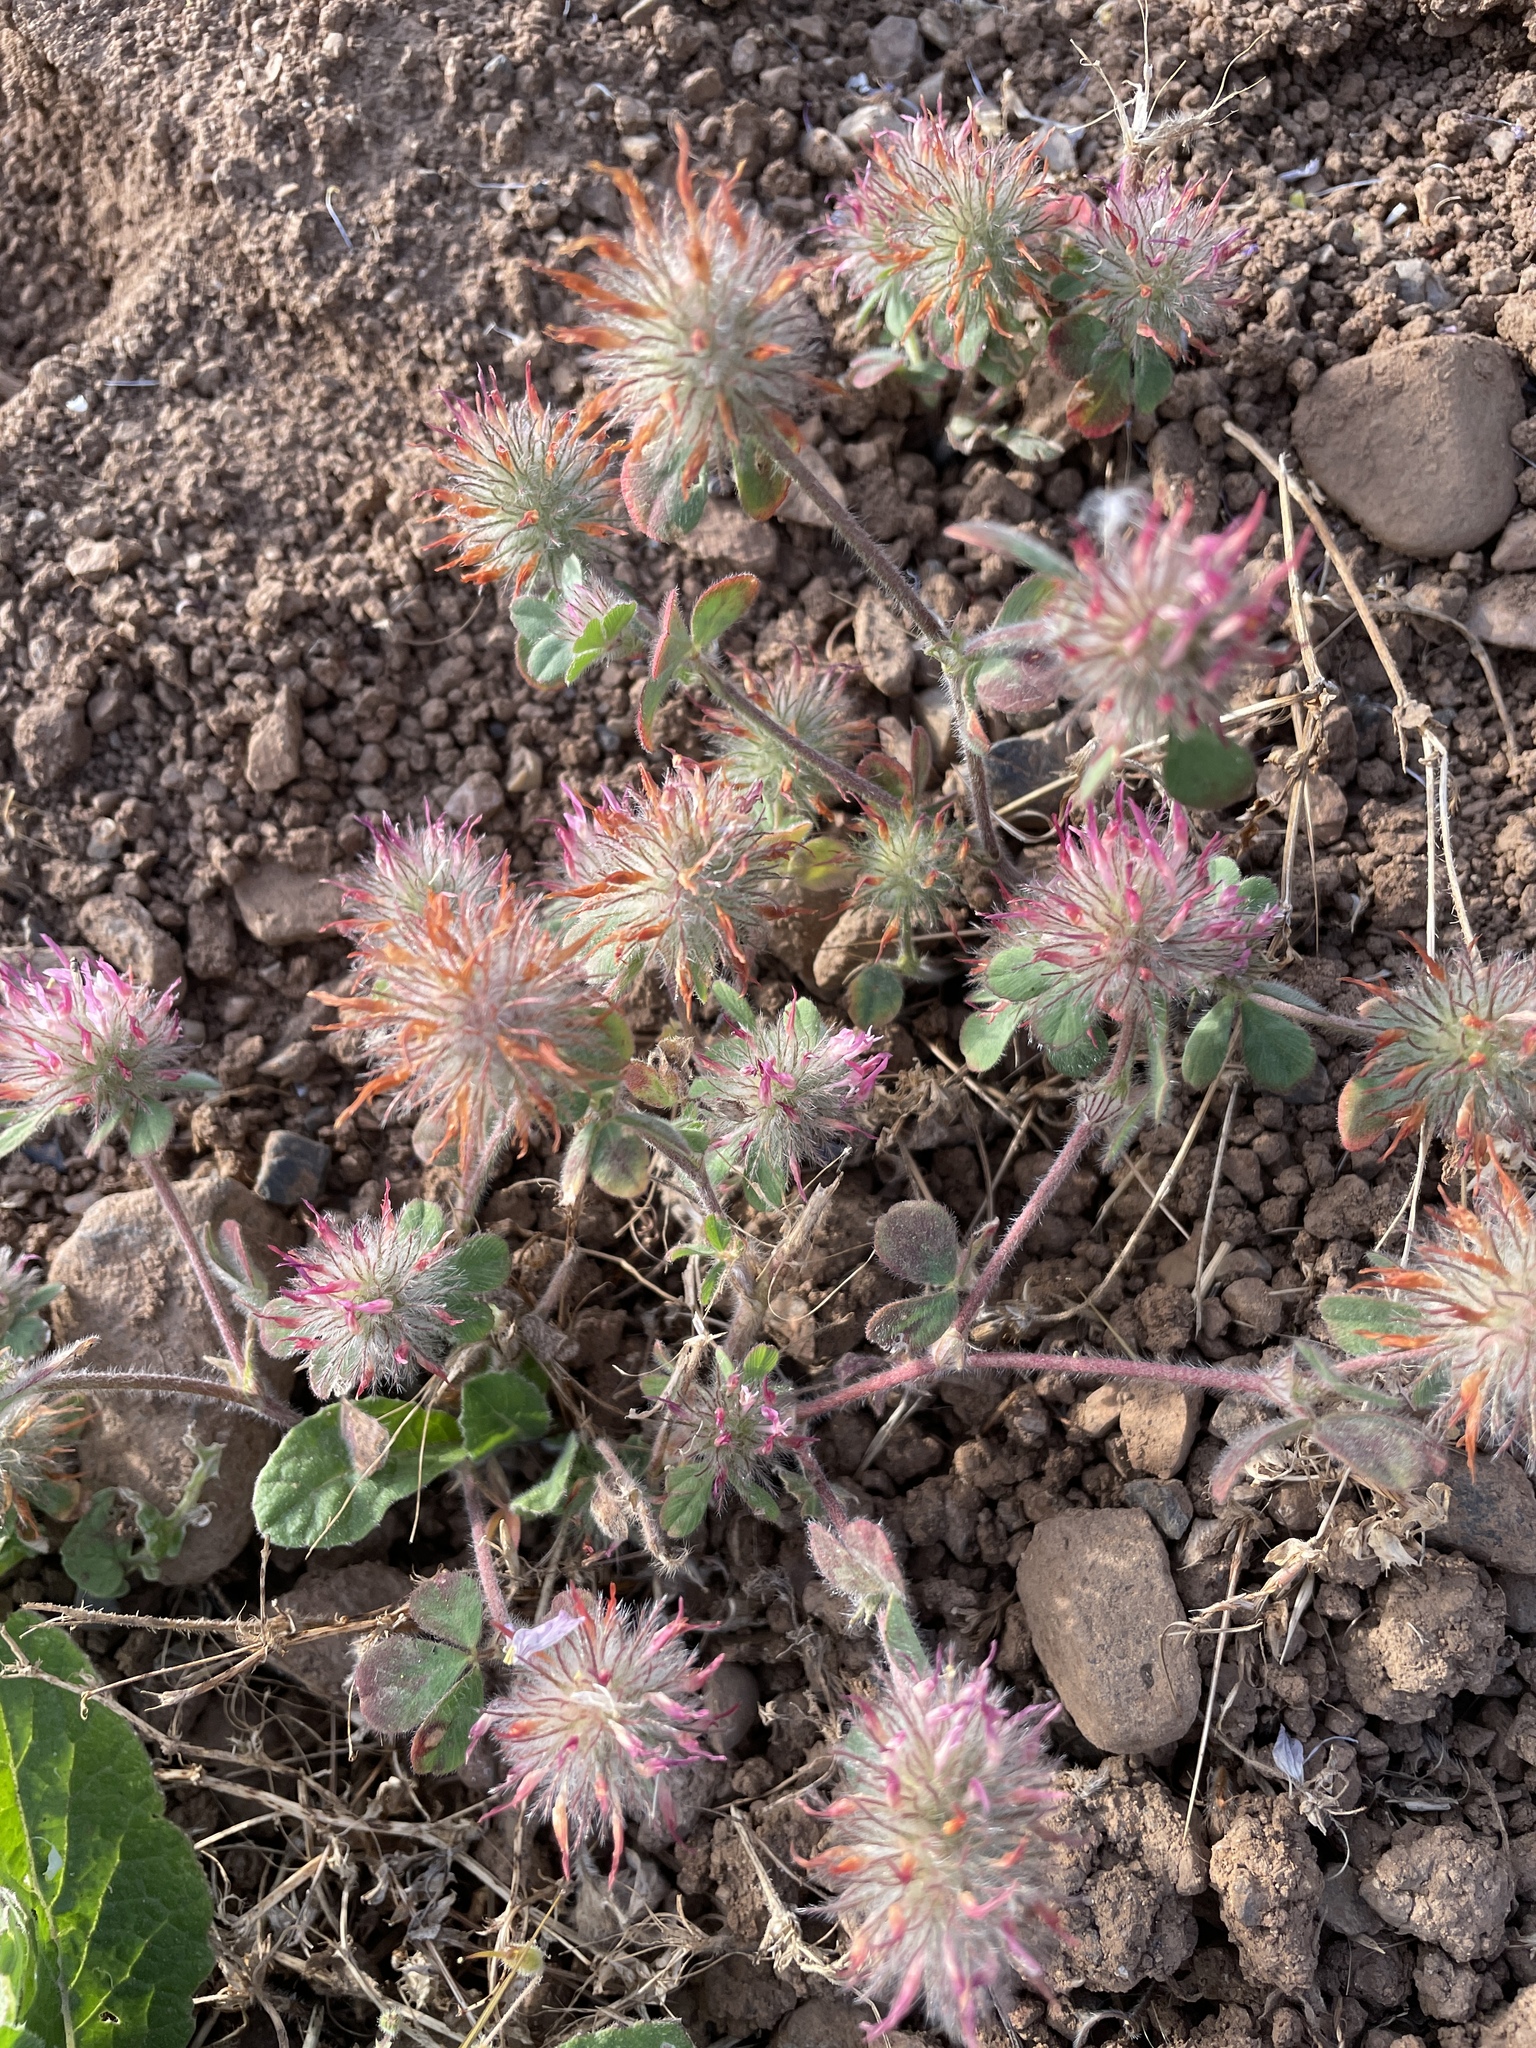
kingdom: Plantae
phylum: Tracheophyta
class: Magnoliopsida
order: Fabales
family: Fabaceae
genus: Trifolium
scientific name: Trifolium hirtum
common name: Rose clover
